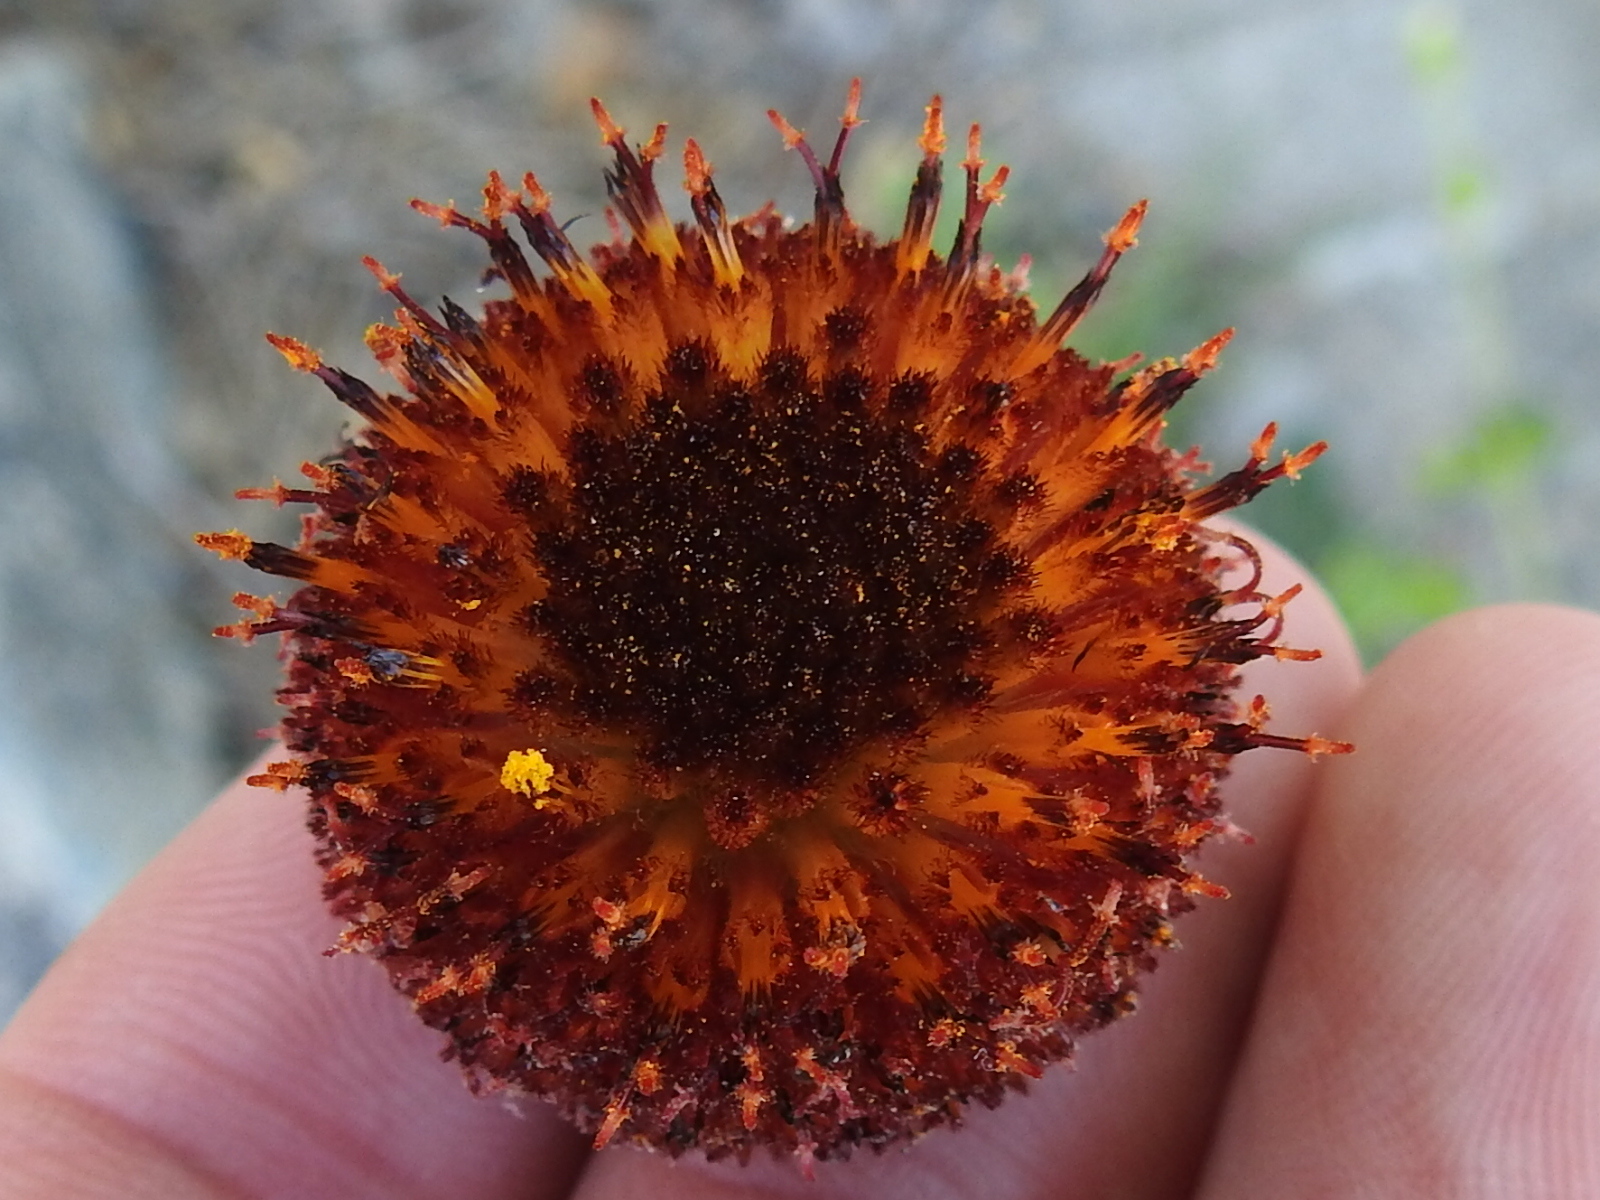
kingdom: Plantae
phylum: Tracheophyta
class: Magnoliopsida
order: Asterales
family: Asteraceae
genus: Gaillardia
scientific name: Gaillardia suavis
